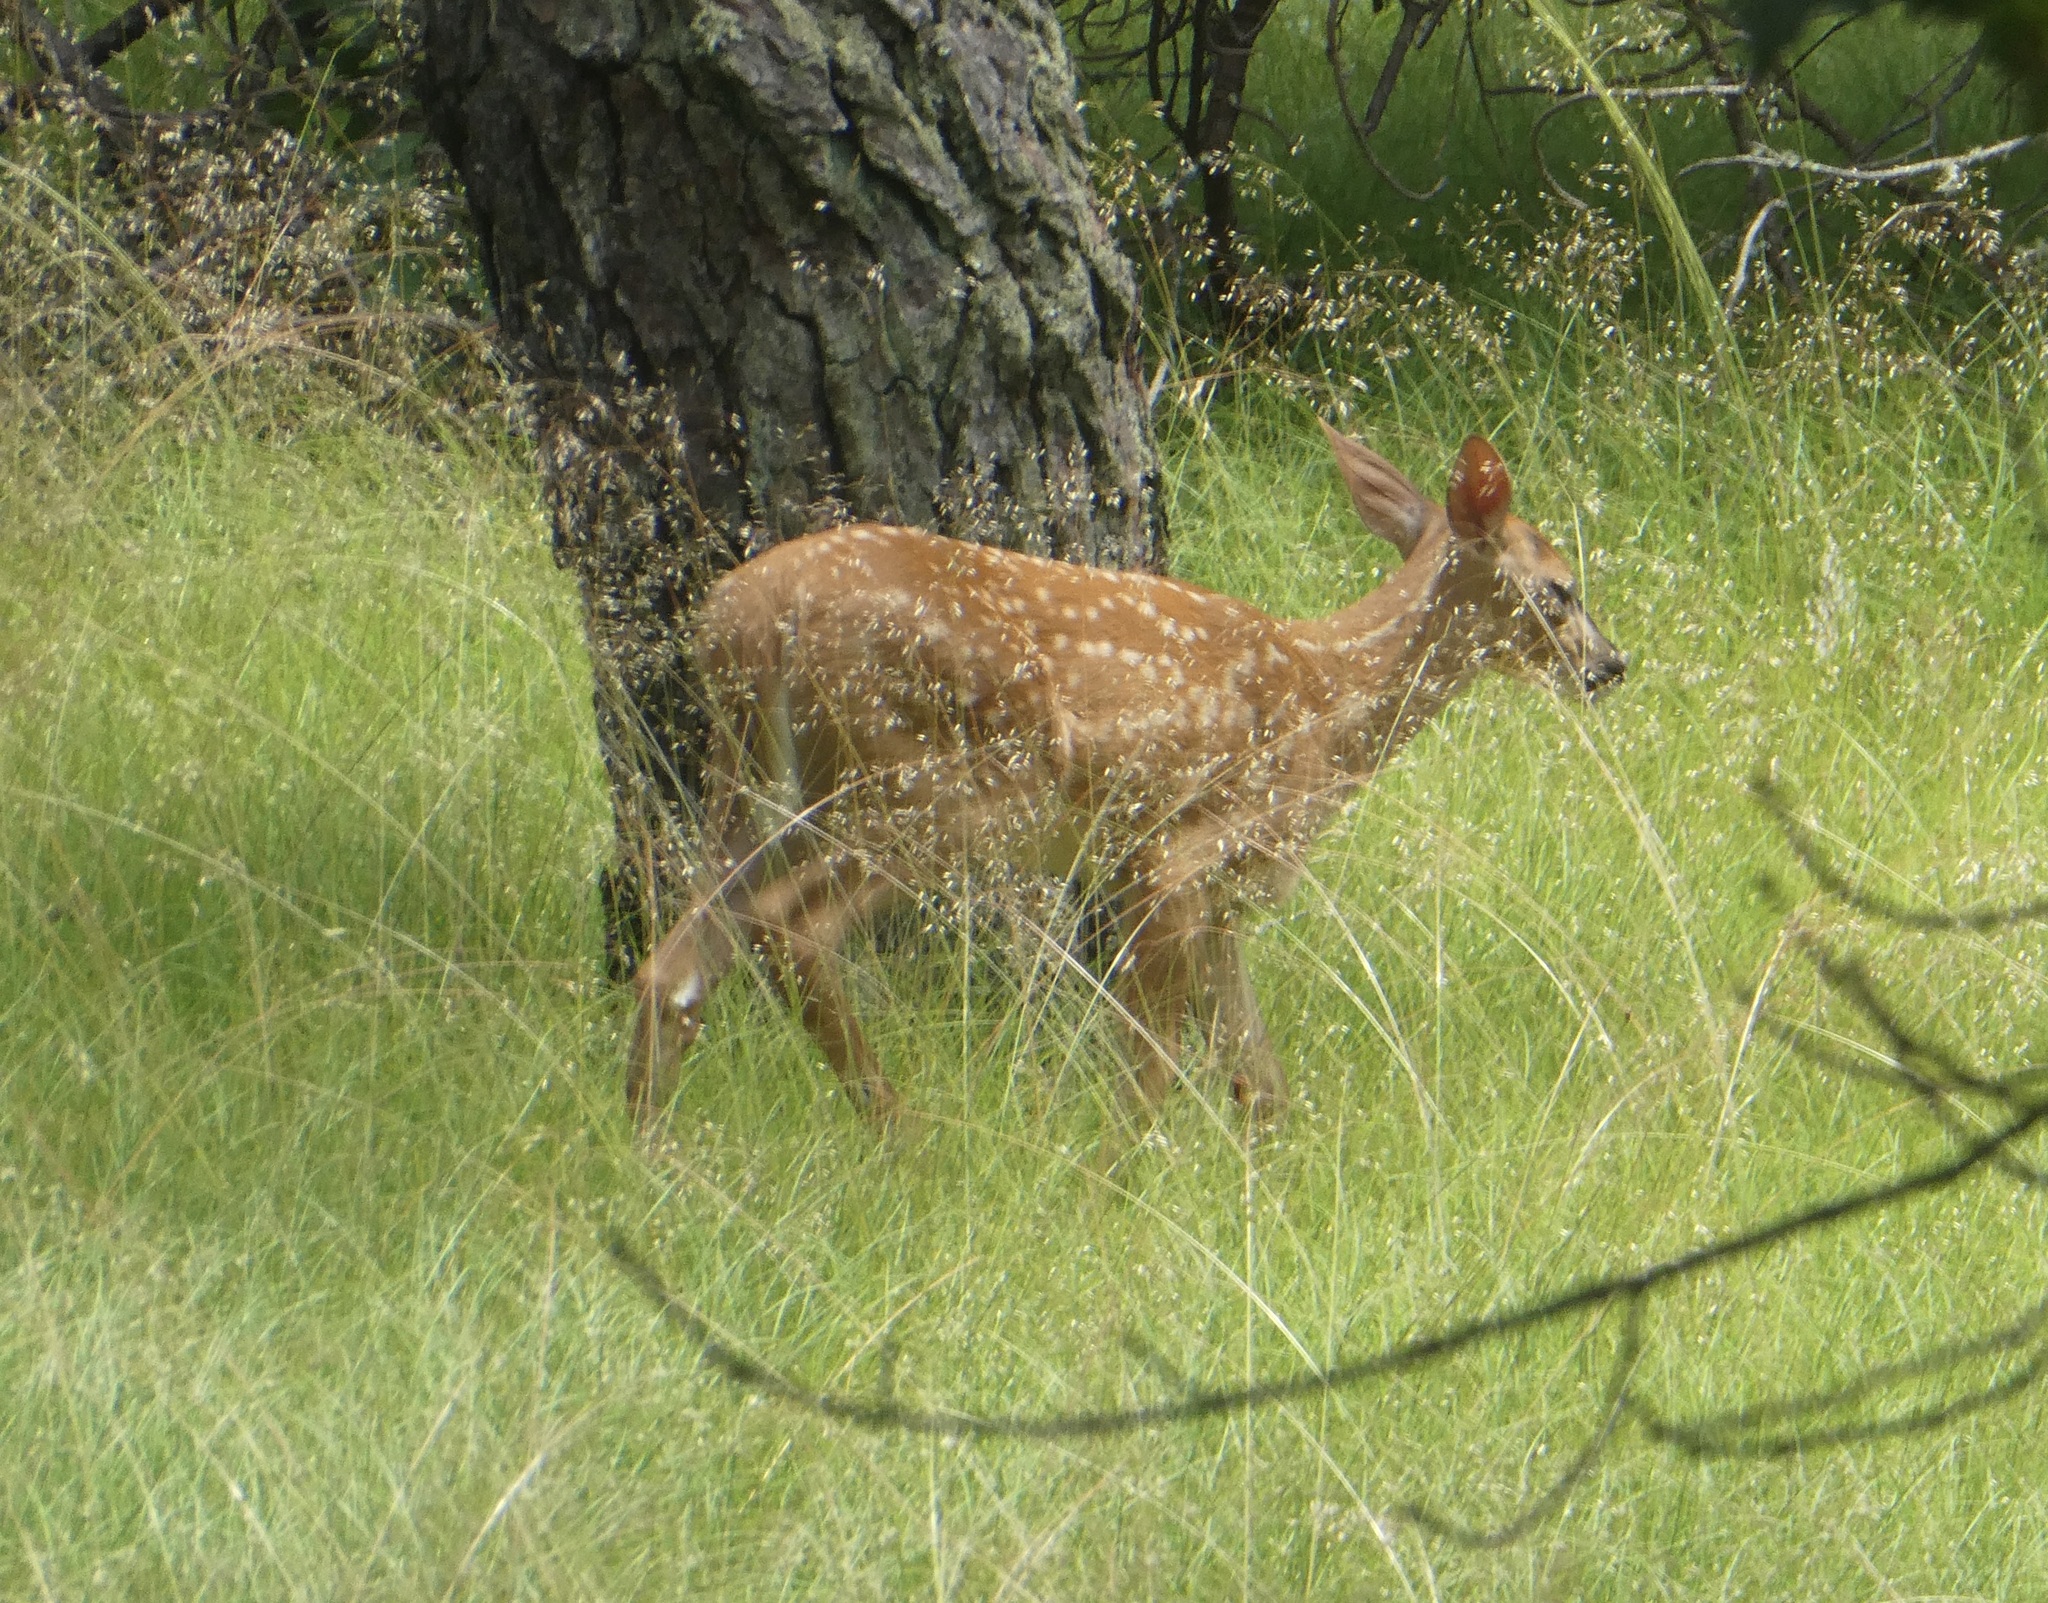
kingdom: Animalia
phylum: Chordata
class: Mammalia
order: Artiodactyla
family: Cervidae
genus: Odocoileus
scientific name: Odocoileus virginianus
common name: White-tailed deer
